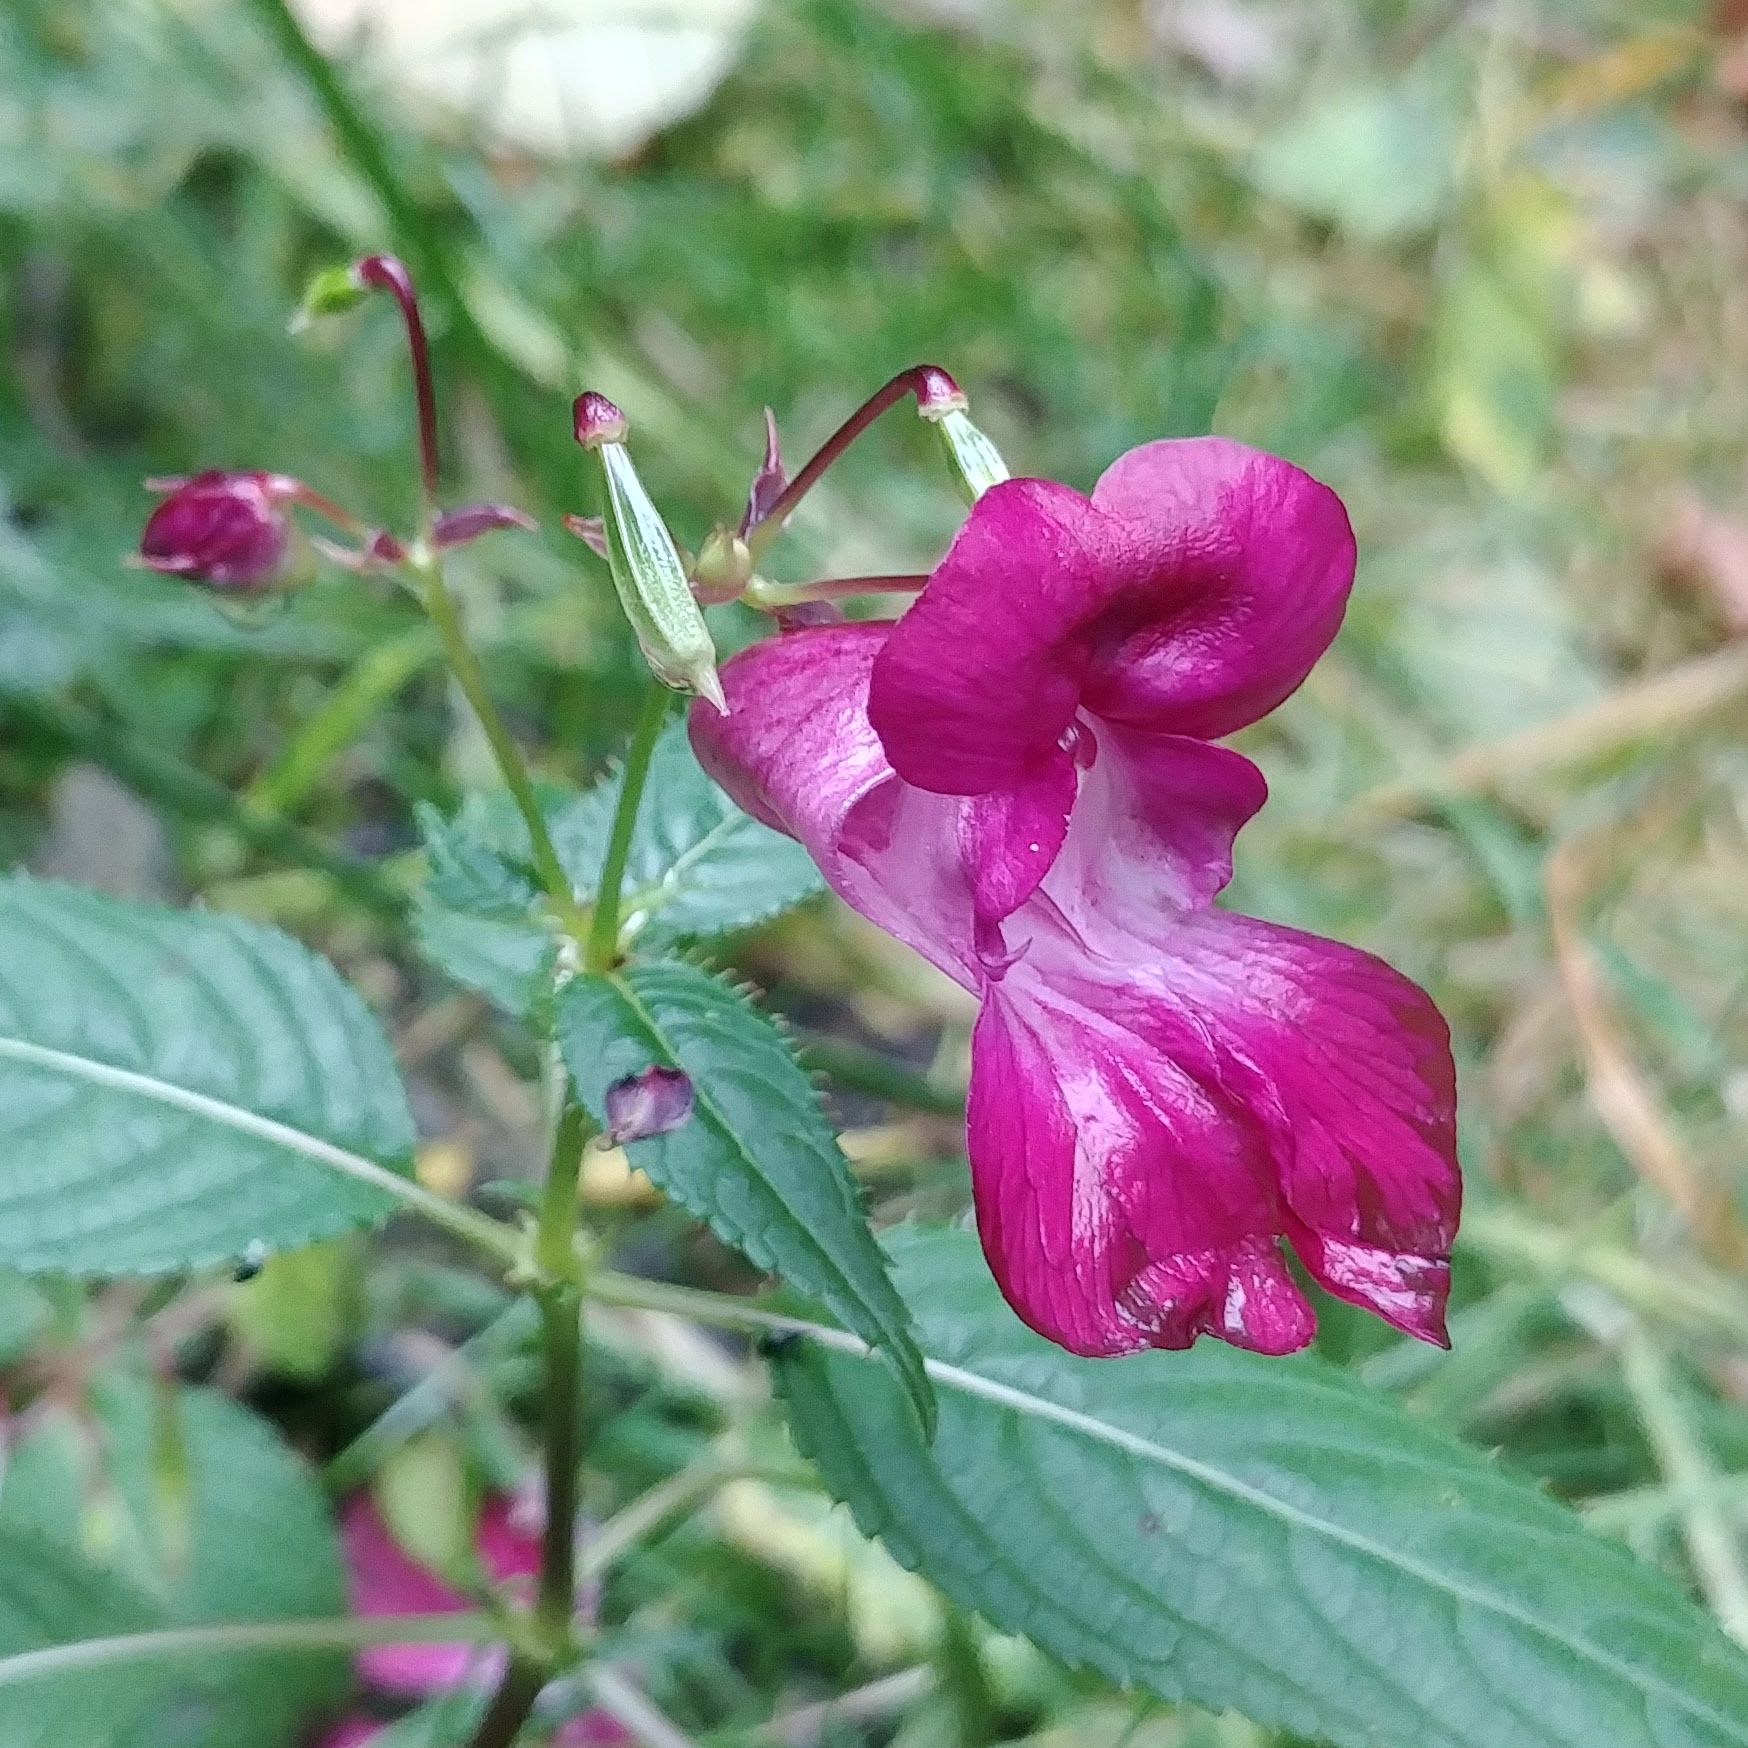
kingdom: Plantae
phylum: Tracheophyta
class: Magnoliopsida
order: Ericales
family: Balsaminaceae
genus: Impatiens
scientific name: Impatiens glandulifera
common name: Himalayan balsam
